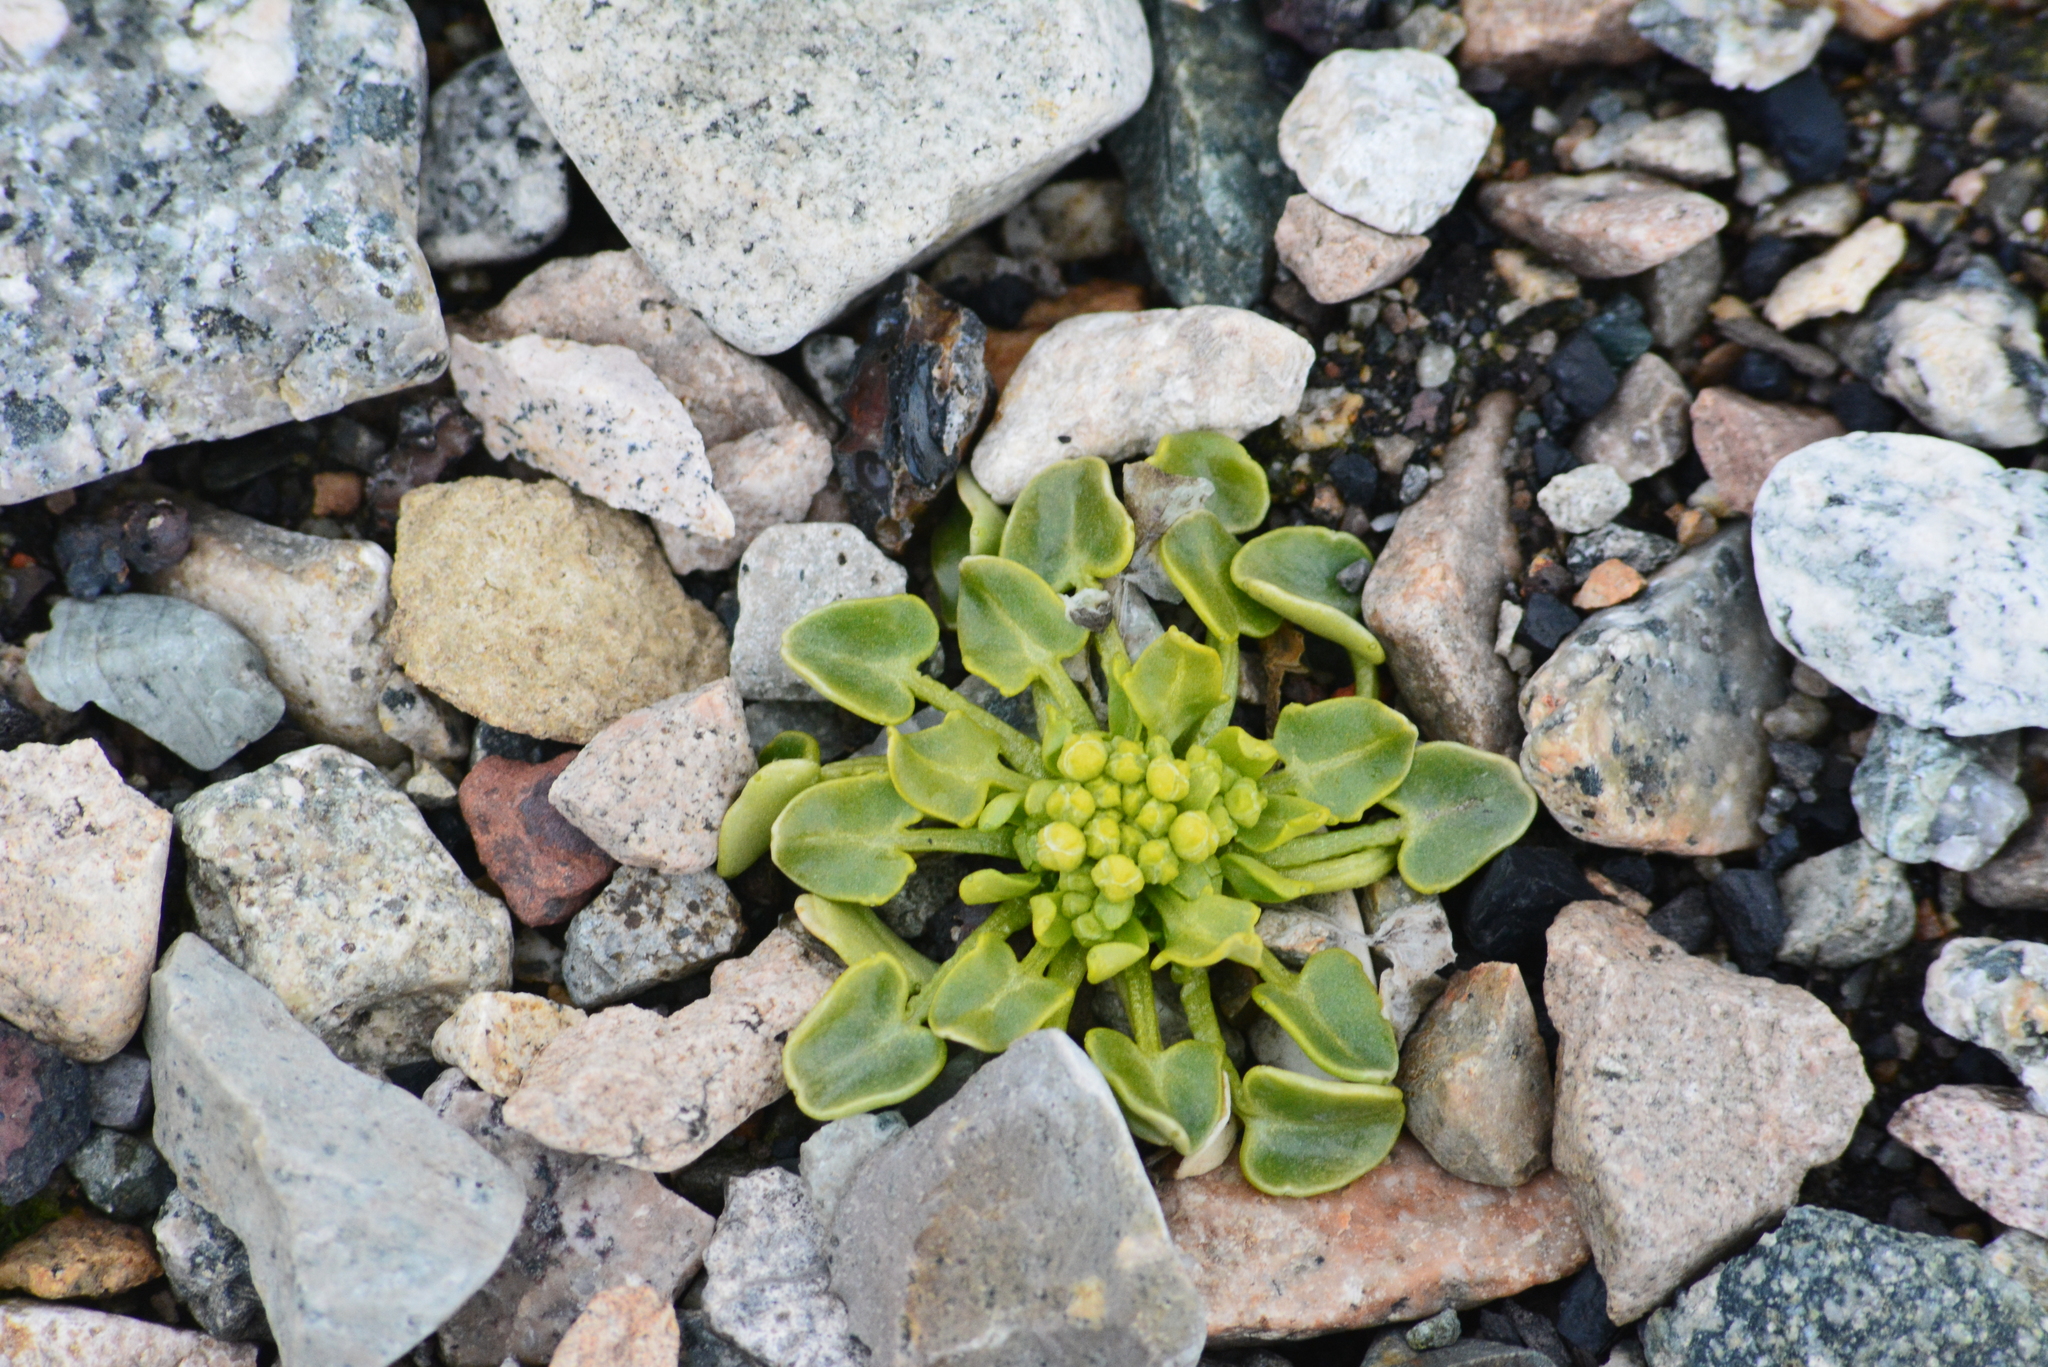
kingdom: Plantae
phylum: Tracheophyta
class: Magnoliopsida
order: Brassicales
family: Brassicaceae
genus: Cochlearia
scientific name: Cochlearia groenlandica
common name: Danish scurvygrass
